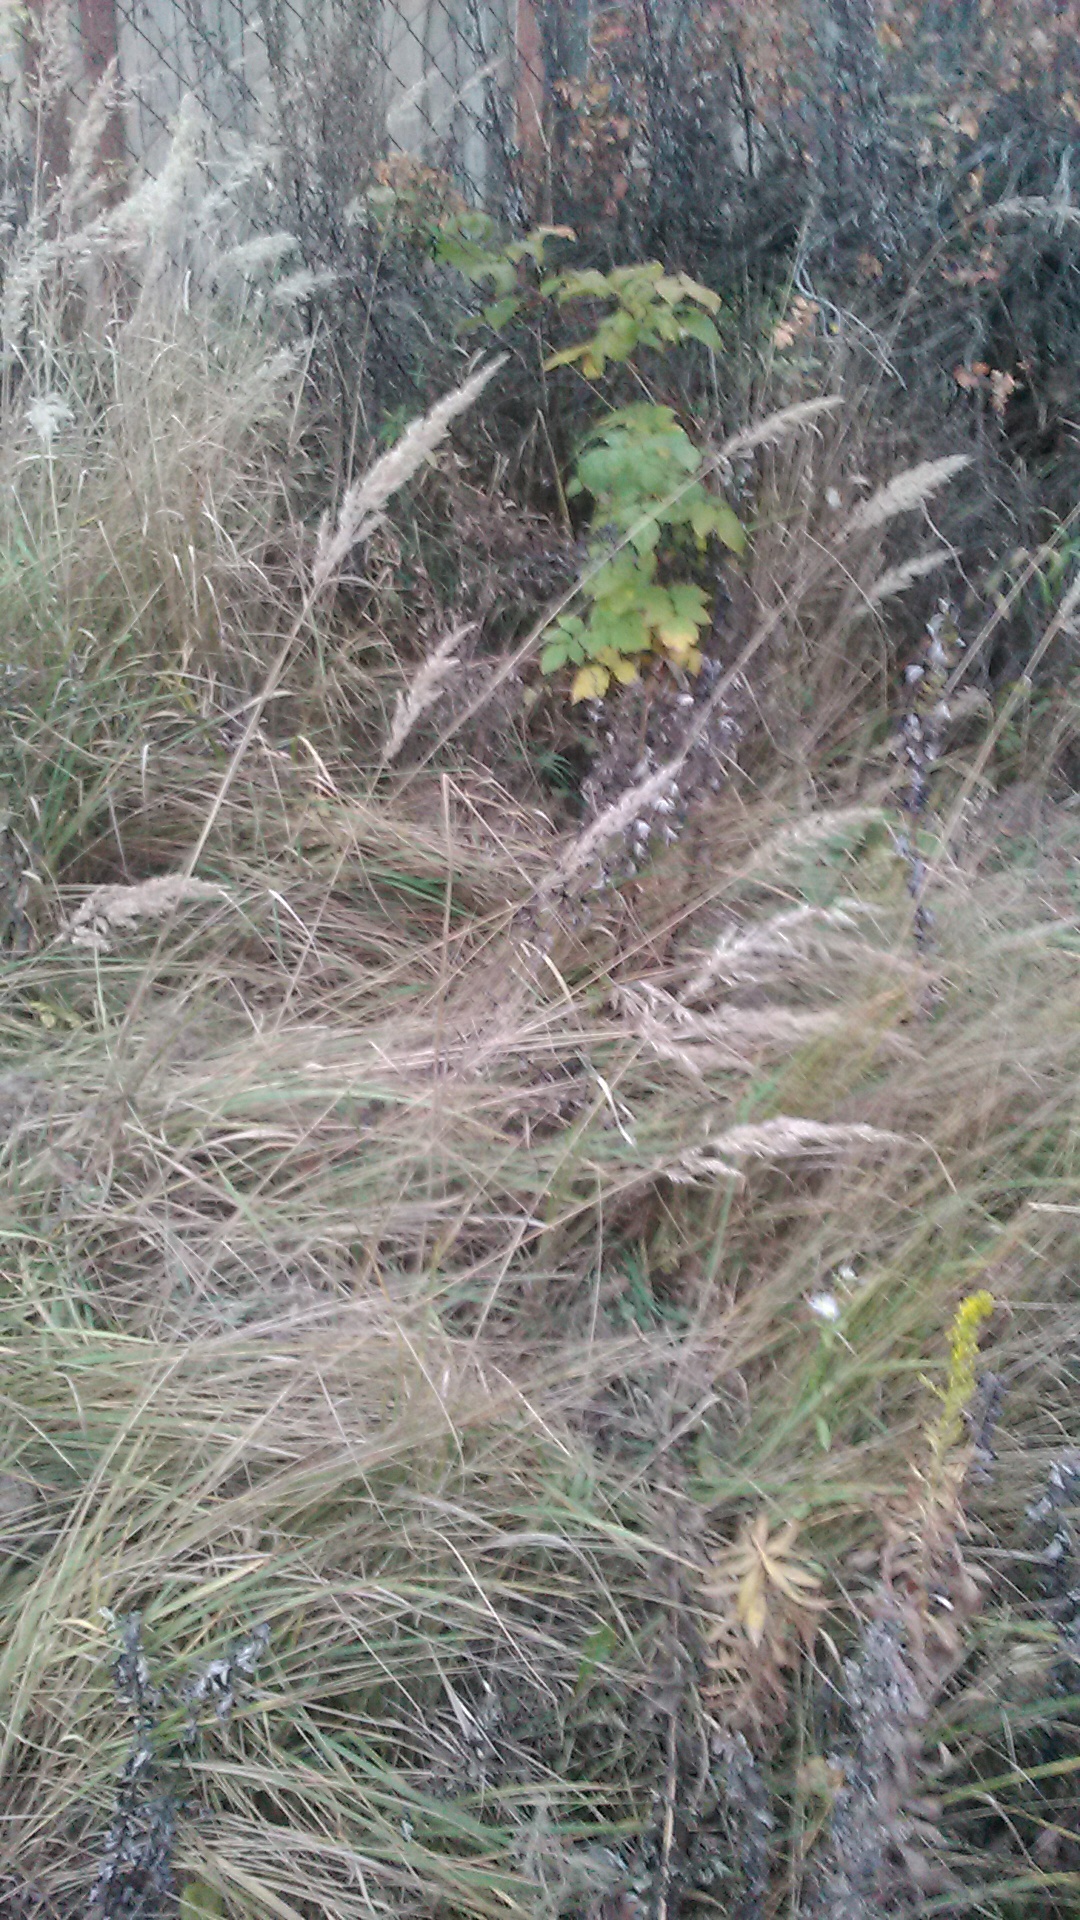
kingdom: Plantae
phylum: Tracheophyta
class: Liliopsida
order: Poales
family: Poaceae
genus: Calamagrostis
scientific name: Calamagrostis epigejos
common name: Wood small-reed
